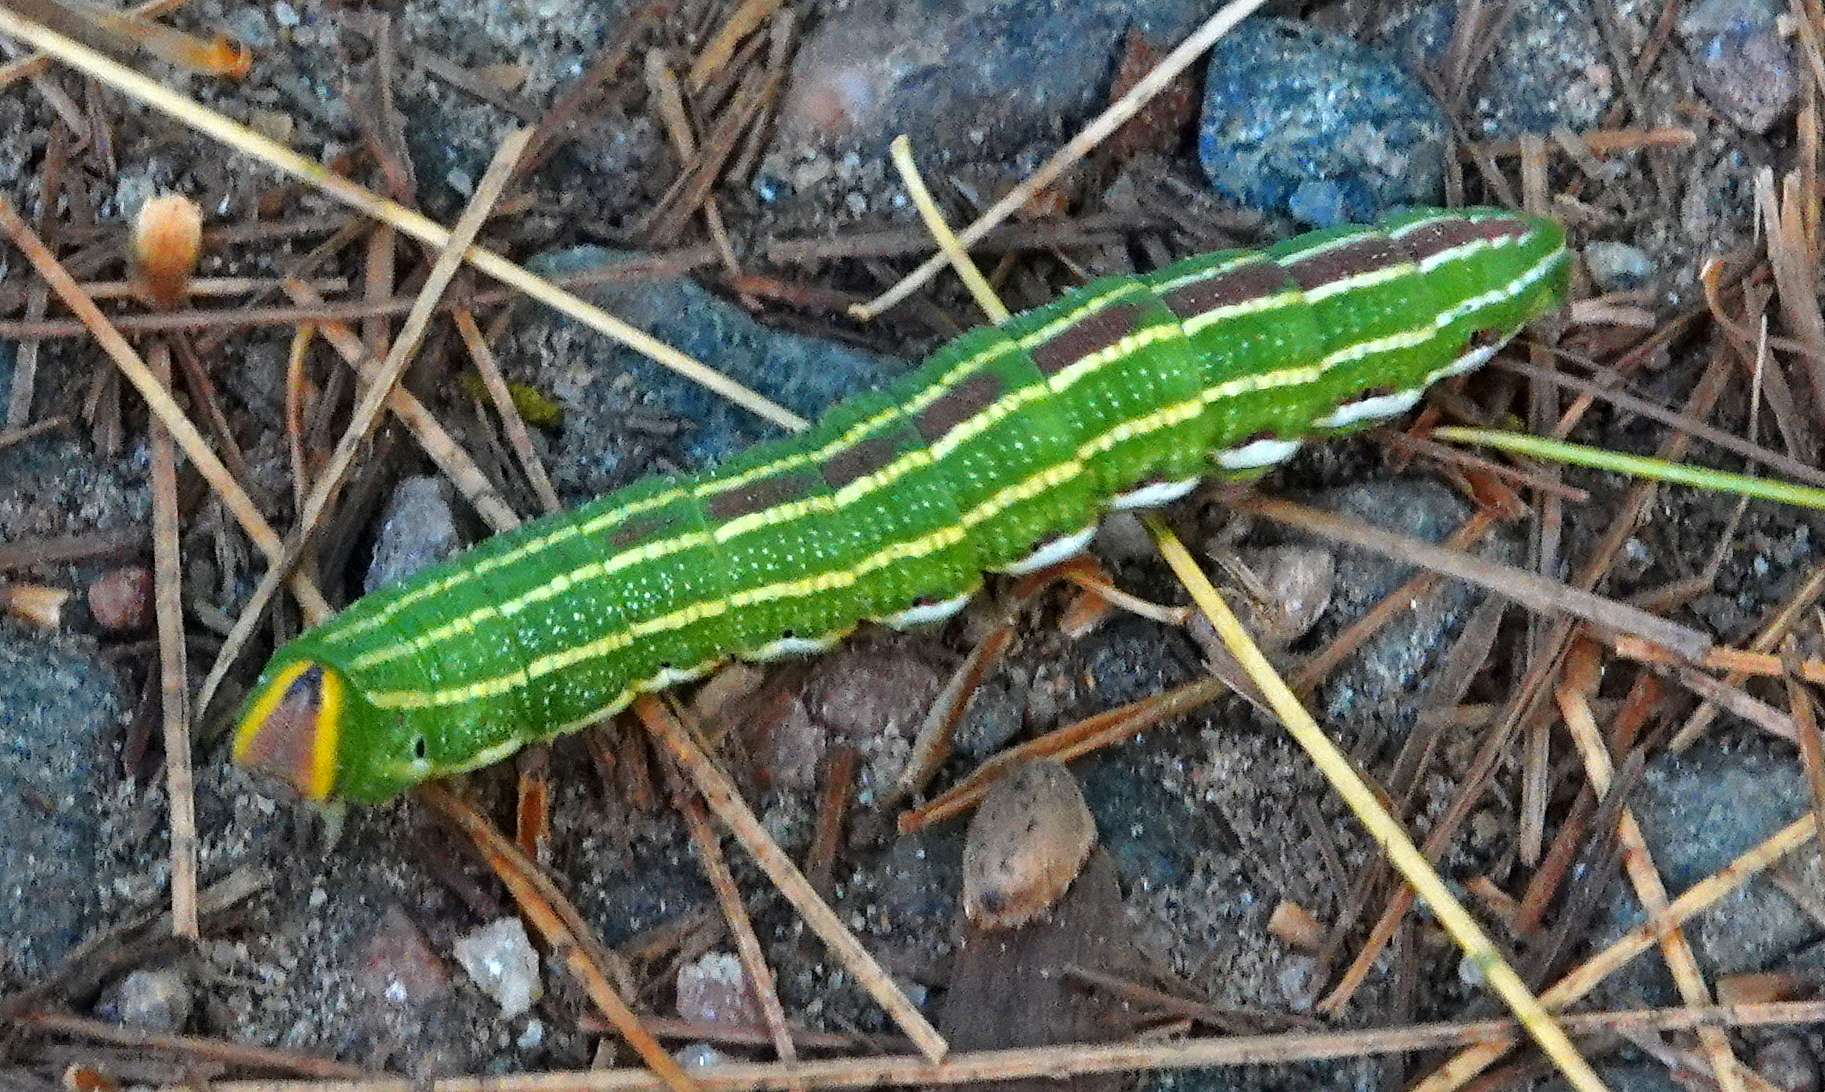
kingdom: Animalia
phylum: Arthropoda
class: Insecta
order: Lepidoptera
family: Sphingidae
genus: Lapara
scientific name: Lapara bombycoides
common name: Northern pine sphinx
